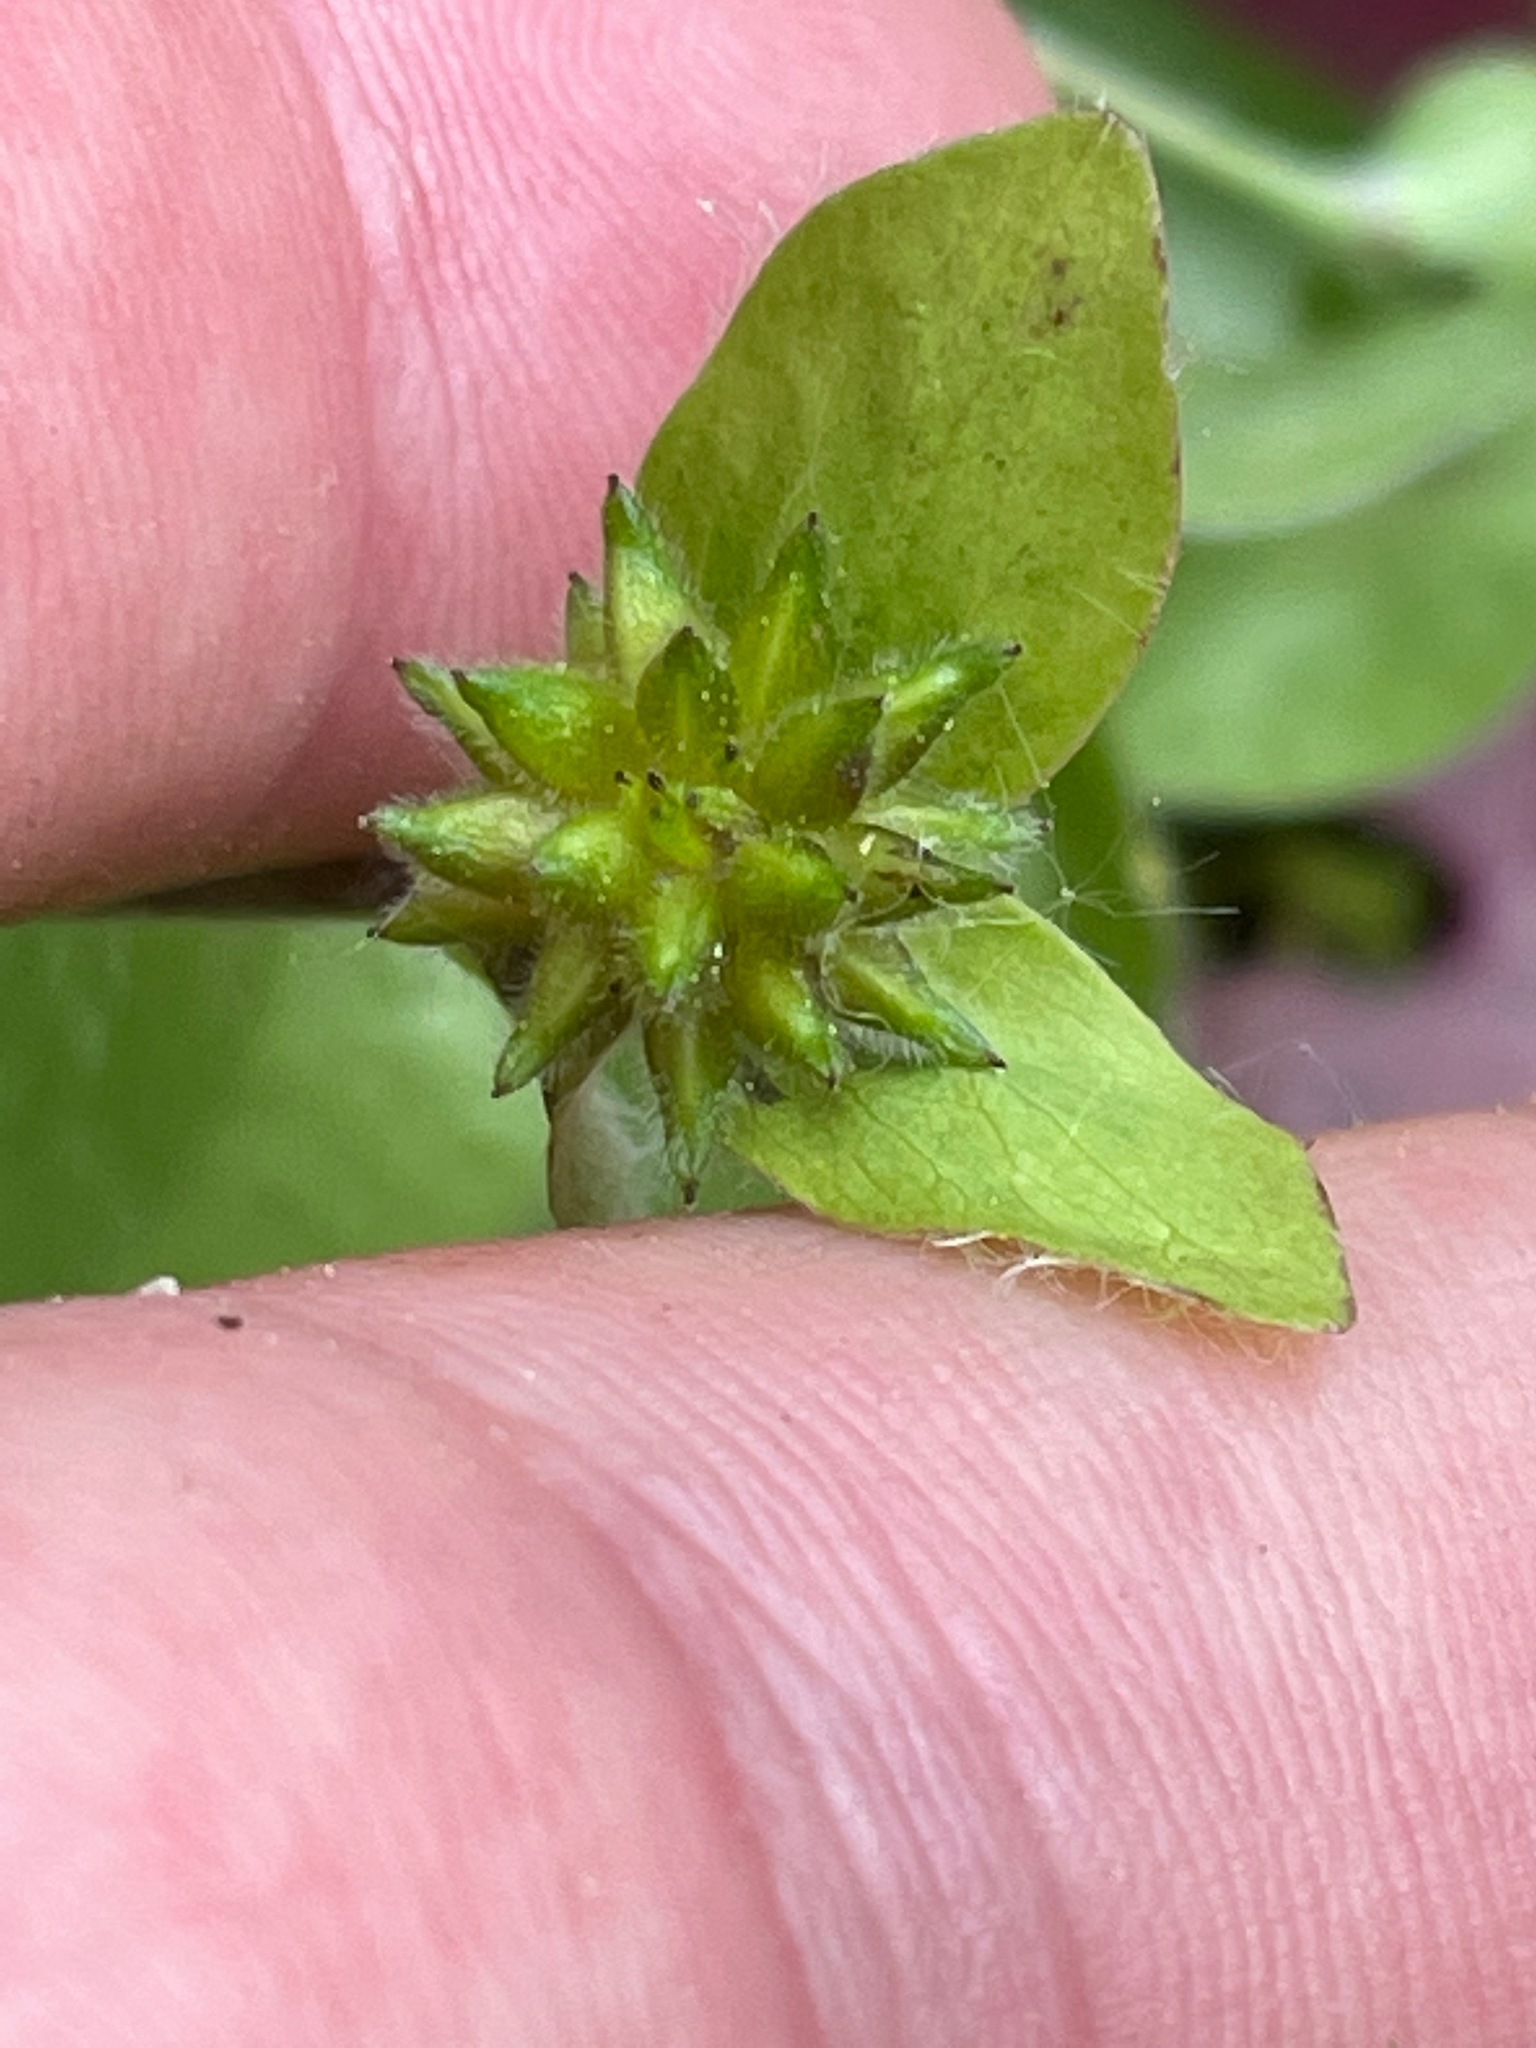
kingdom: Plantae
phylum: Tracheophyta
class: Magnoliopsida
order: Ranunculales
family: Ranunculaceae
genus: Hepatica
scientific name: Hepatica acutiloba
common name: Sharp-lobed hepatica
